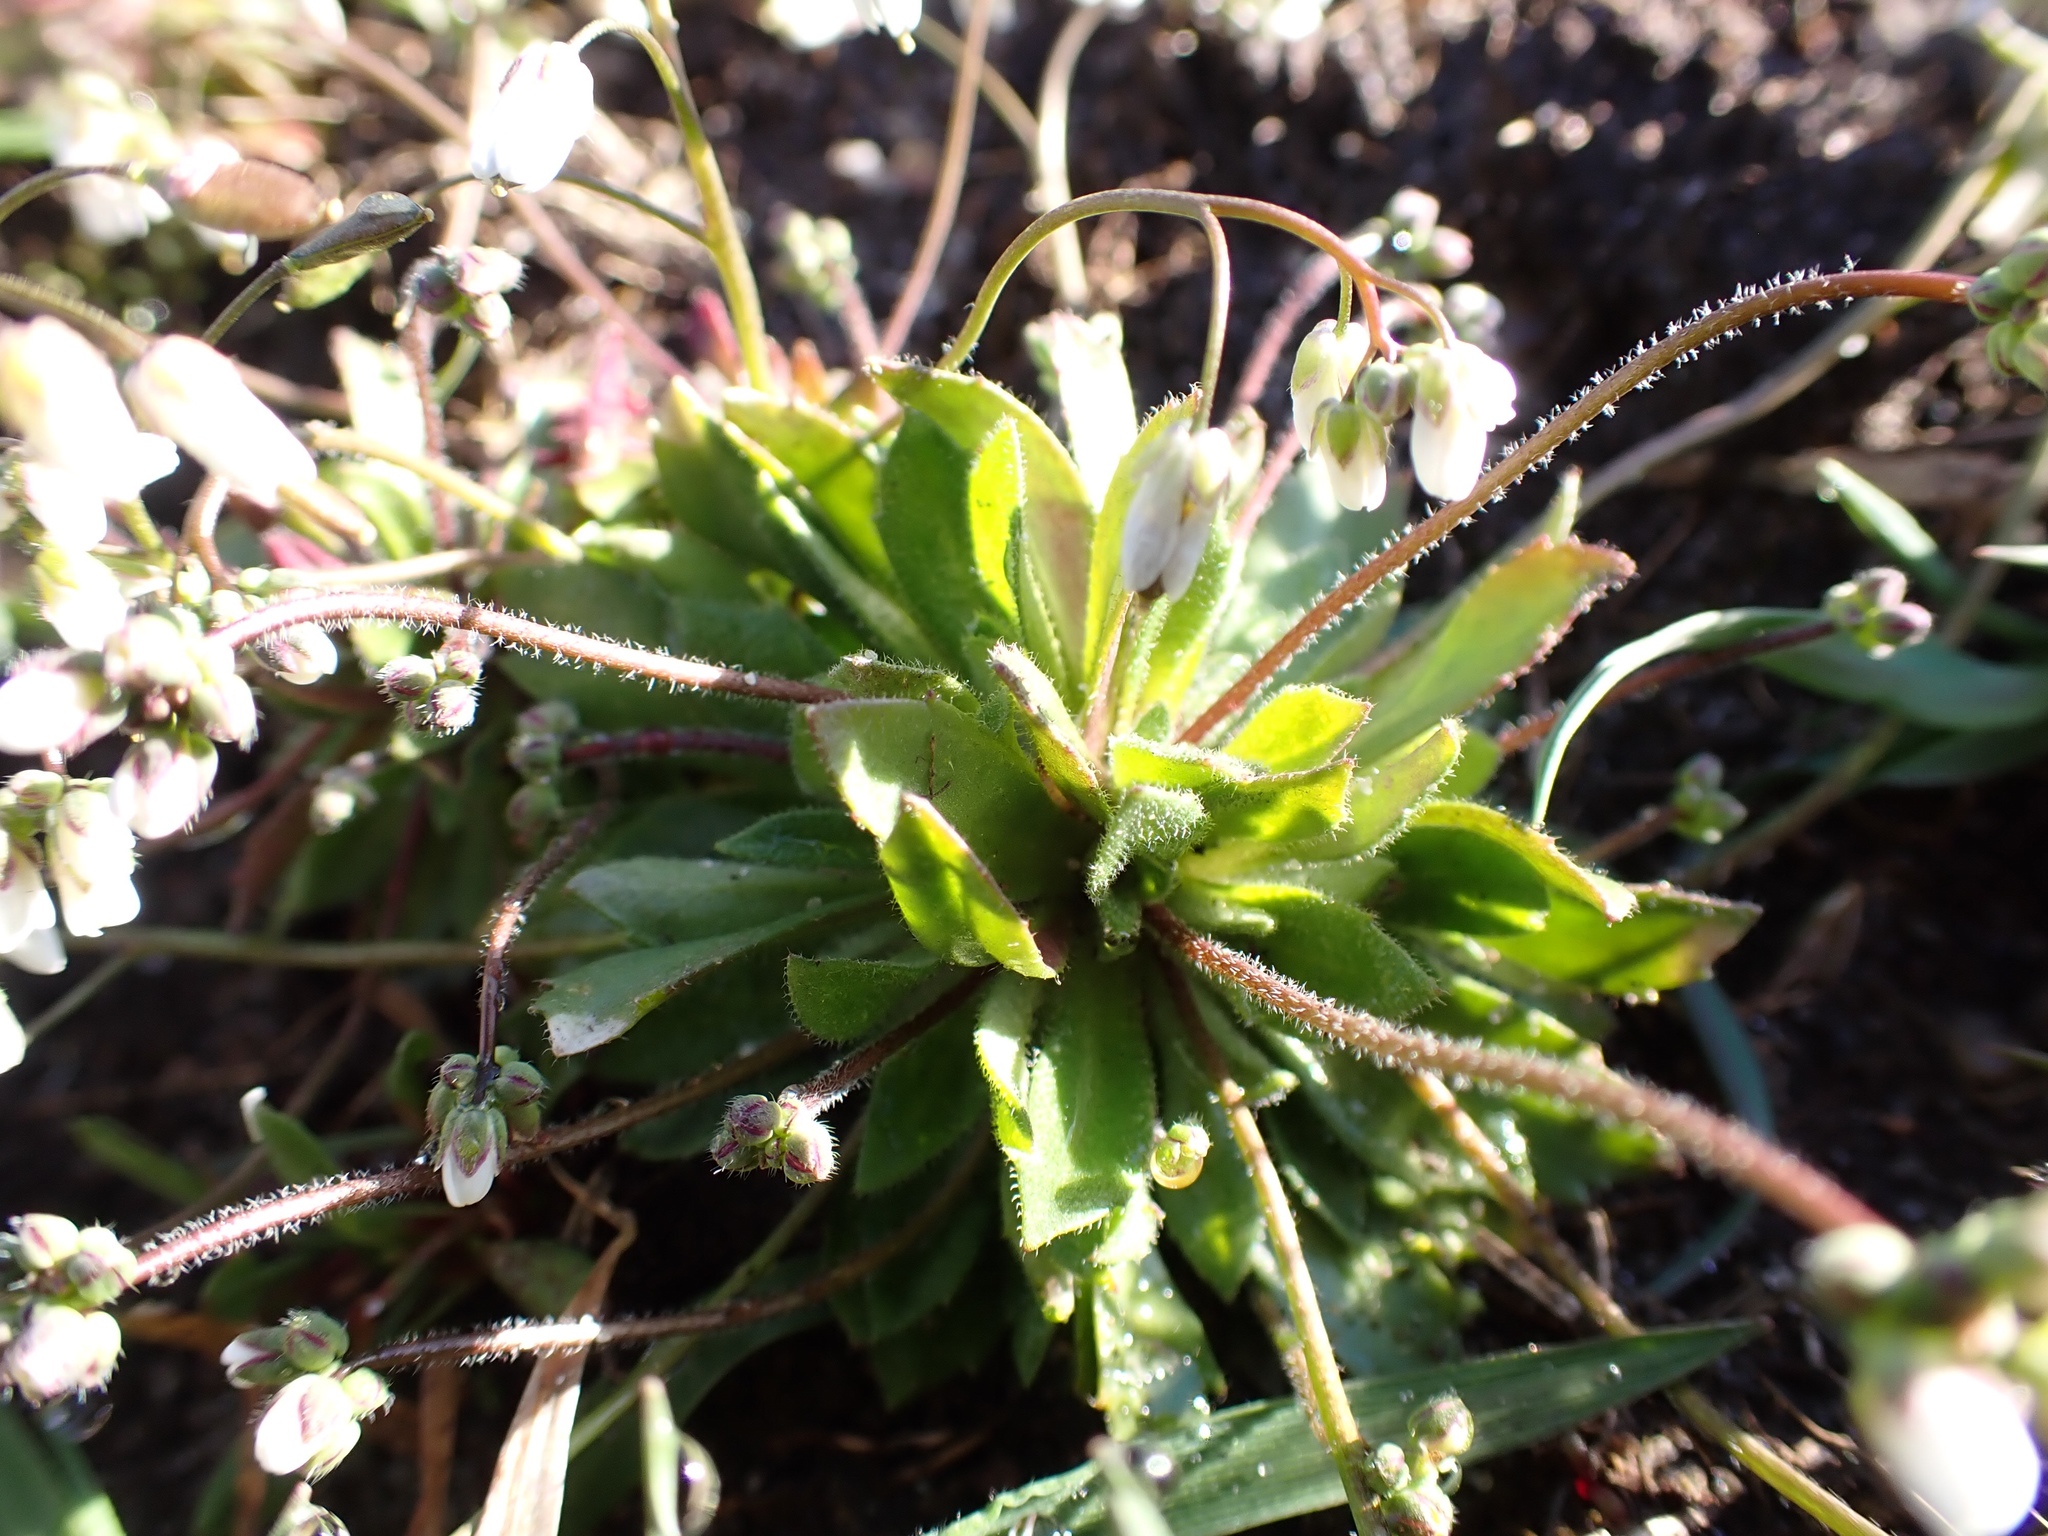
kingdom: Plantae
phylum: Tracheophyta
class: Magnoliopsida
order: Brassicales
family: Brassicaceae
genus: Draba
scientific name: Draba verna
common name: Spring draba
